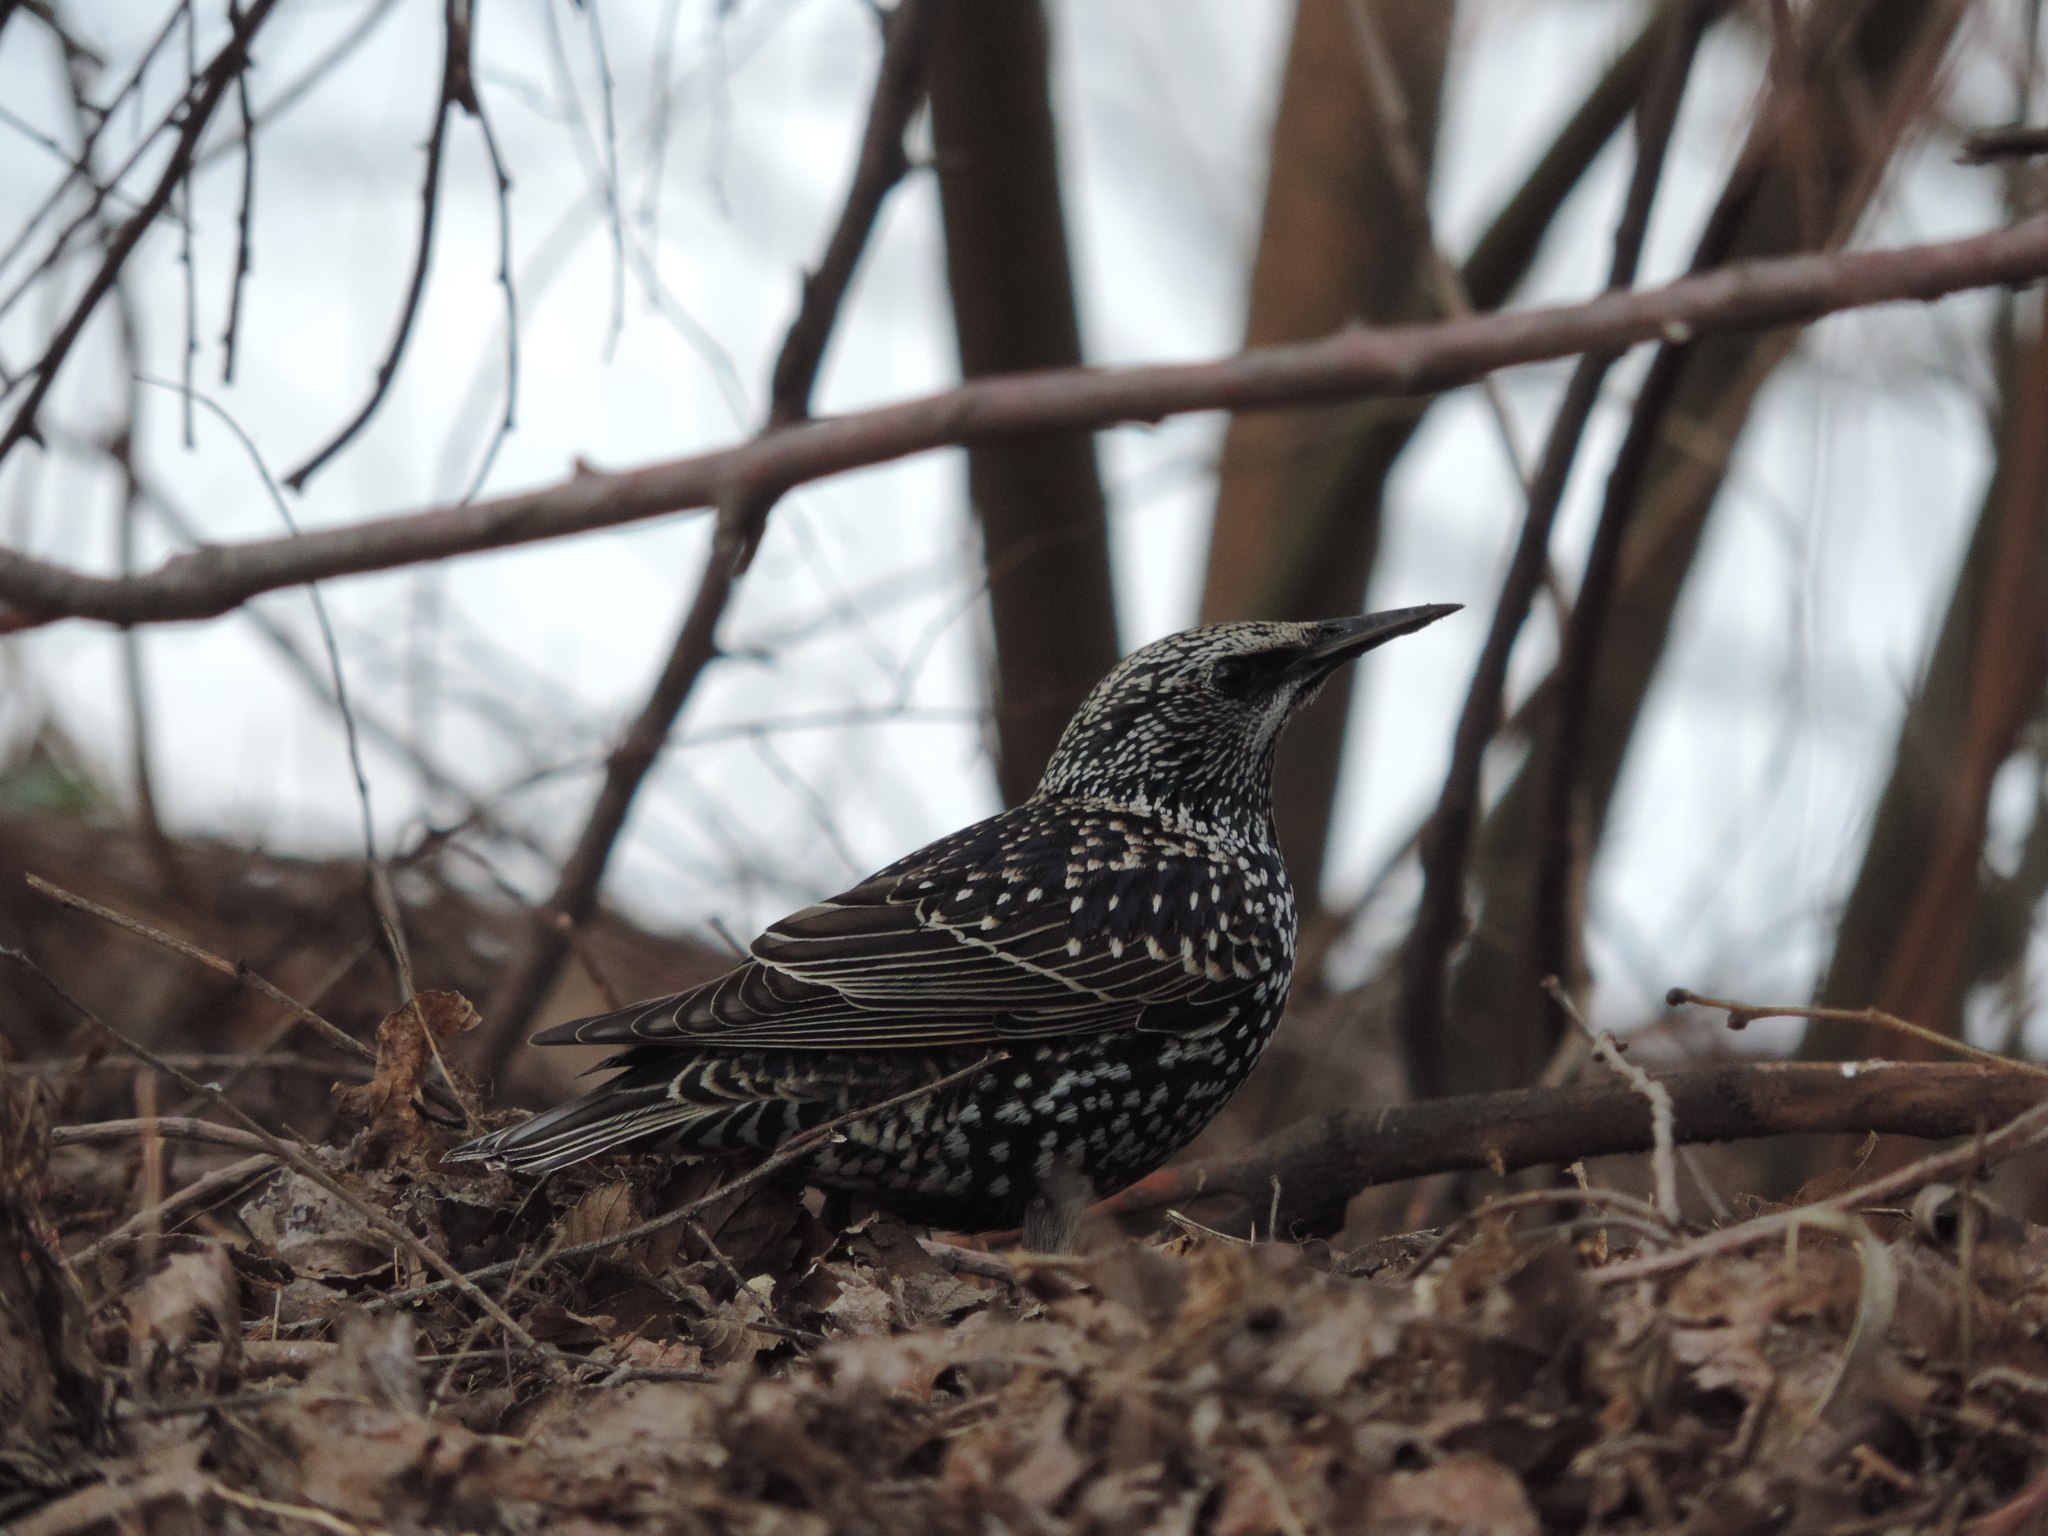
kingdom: Animalia
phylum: Chordata
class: Aves
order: Passeriformes
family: Sturnidae
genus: Sturnus
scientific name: Sturnus vulgaris
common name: Common starling
